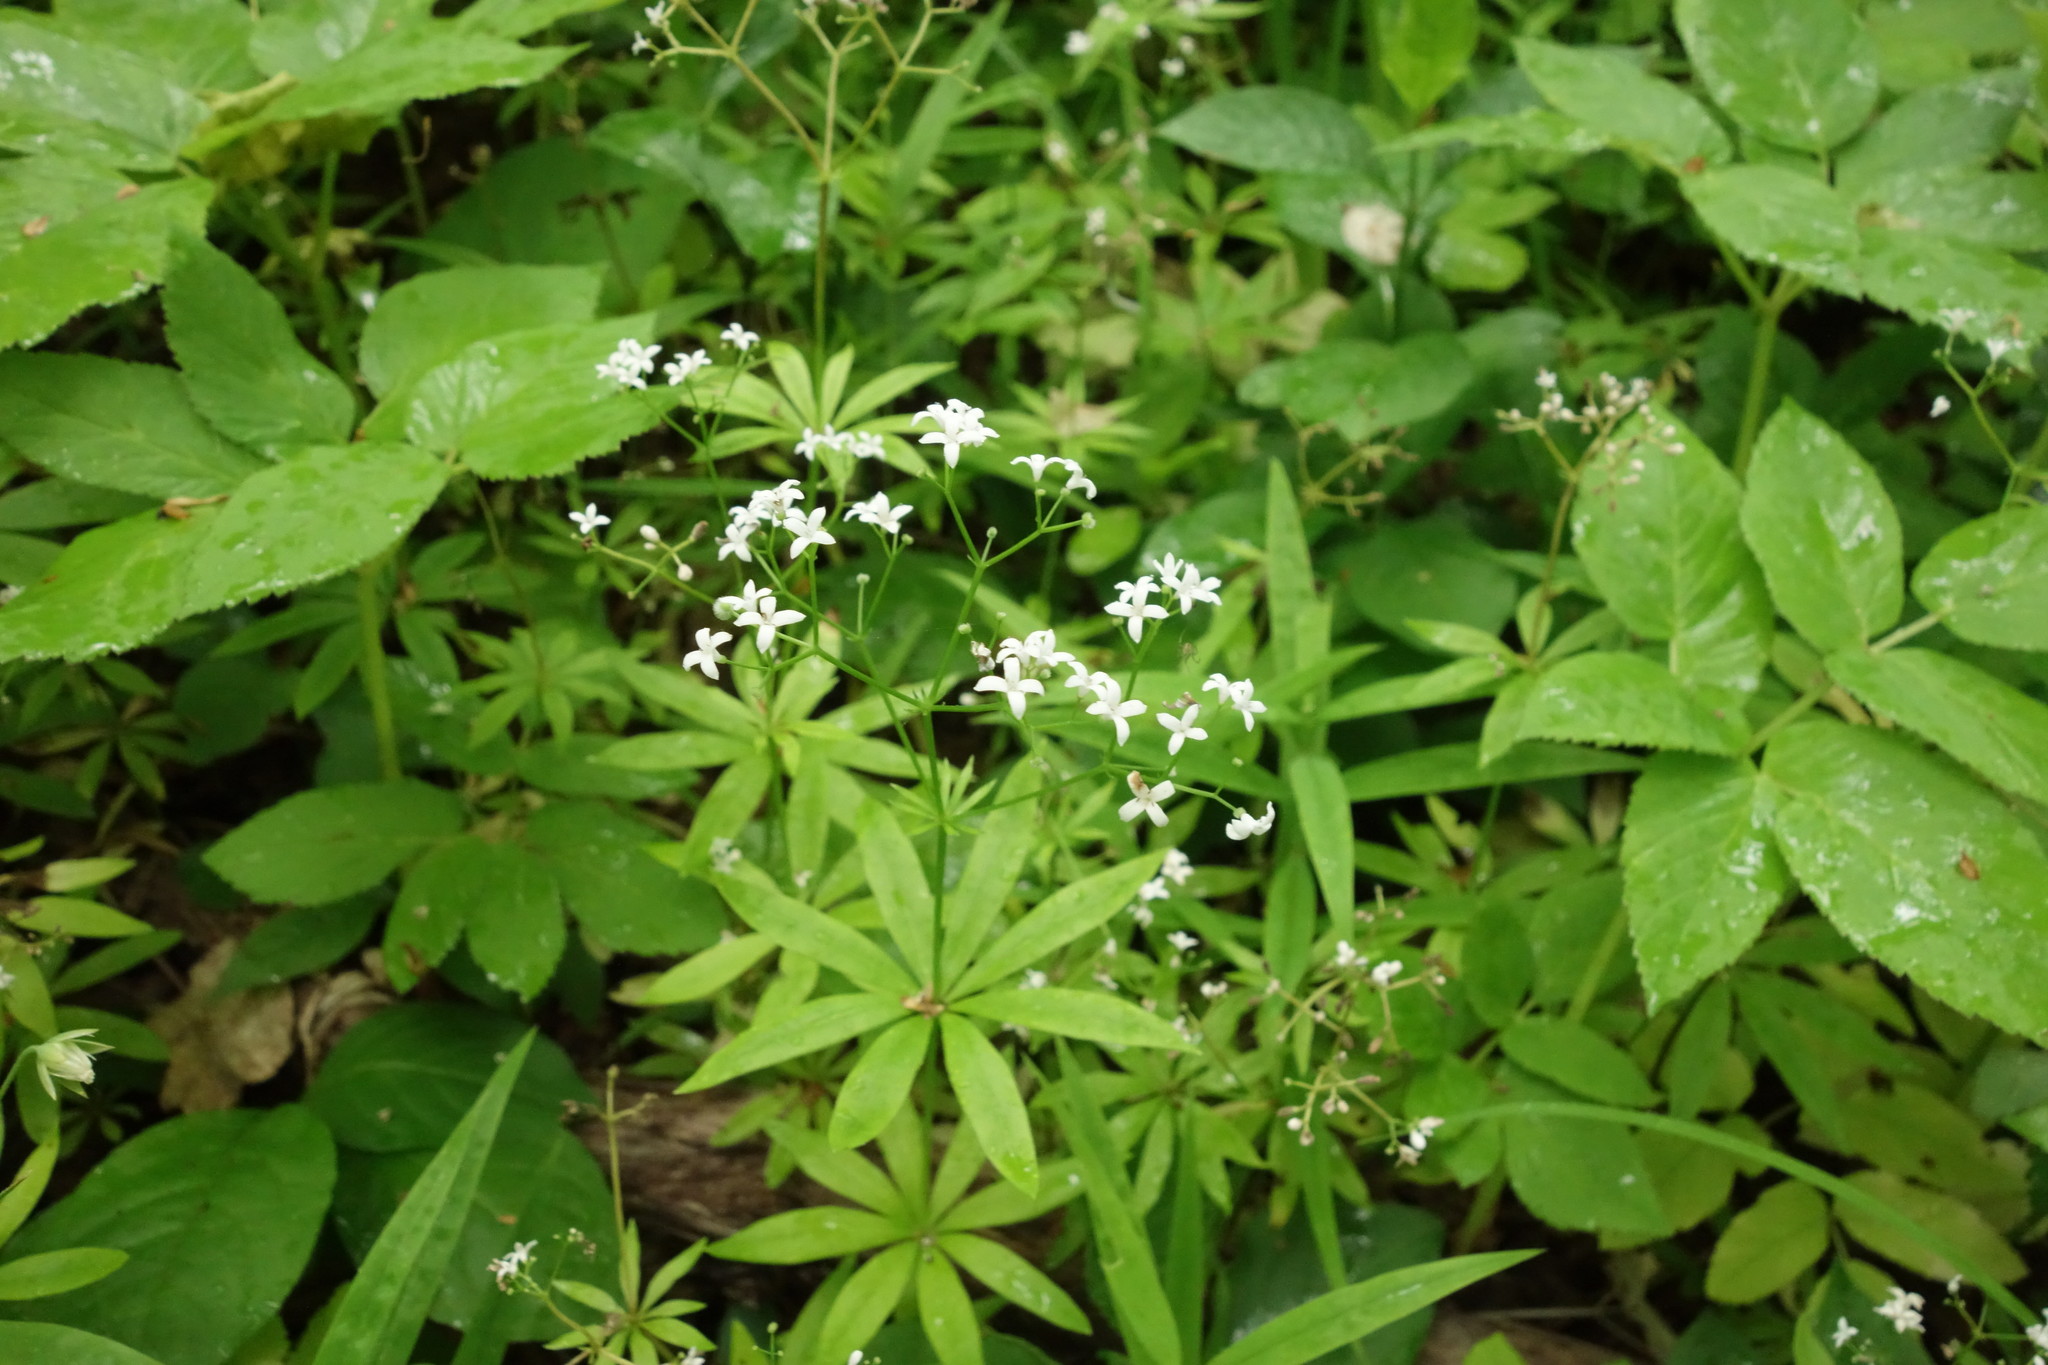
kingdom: Plantae
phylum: Tracheophyta
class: Magnoliopsida
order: Gentianales
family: Rubiaceae
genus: Galium
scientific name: Galium odoratum
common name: Sweet woodruff
